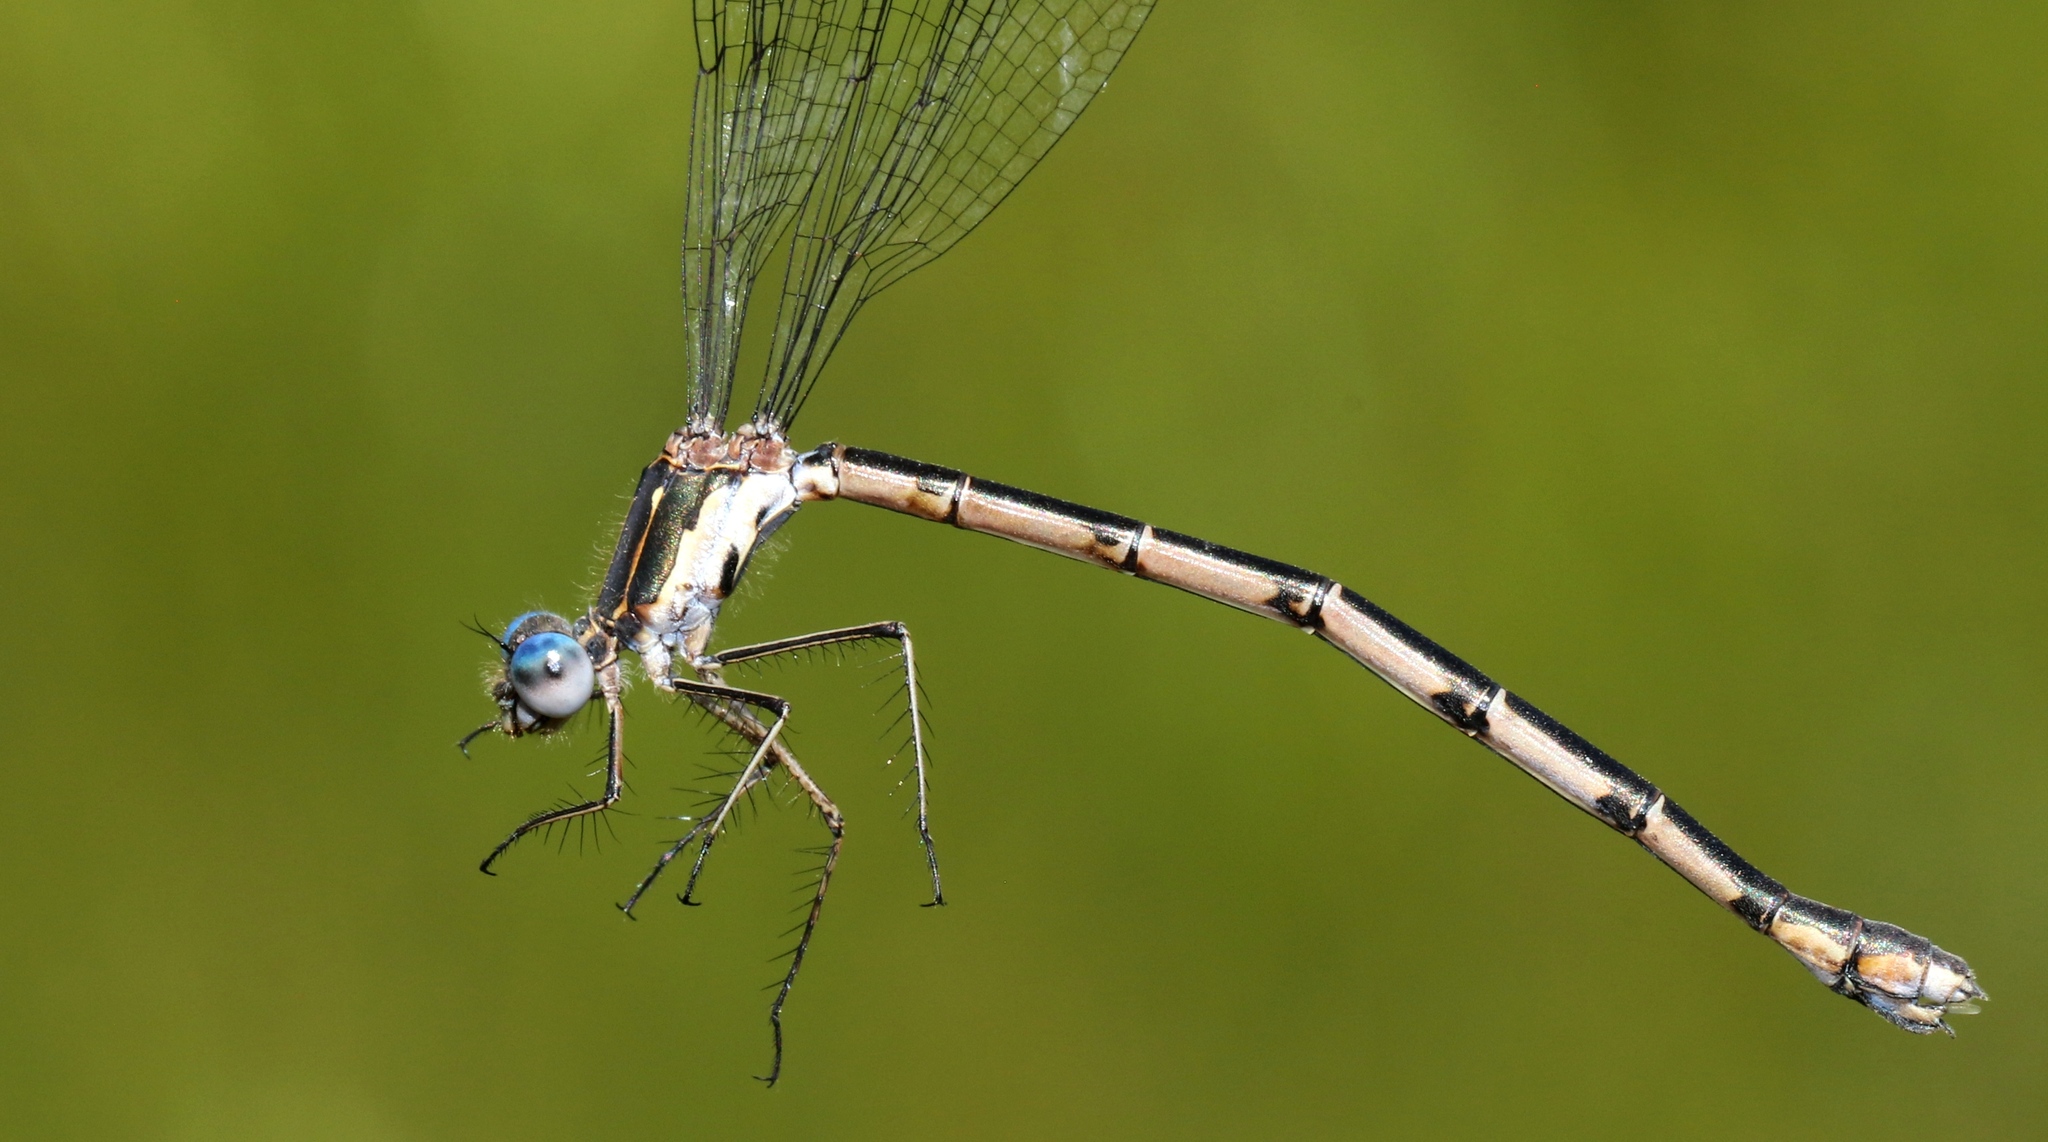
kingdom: Animalia
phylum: Arthropoda
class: Insecta
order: Odonata
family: Lestidae
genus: Lestes
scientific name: Lestes congener
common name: Spotted spreadwing
